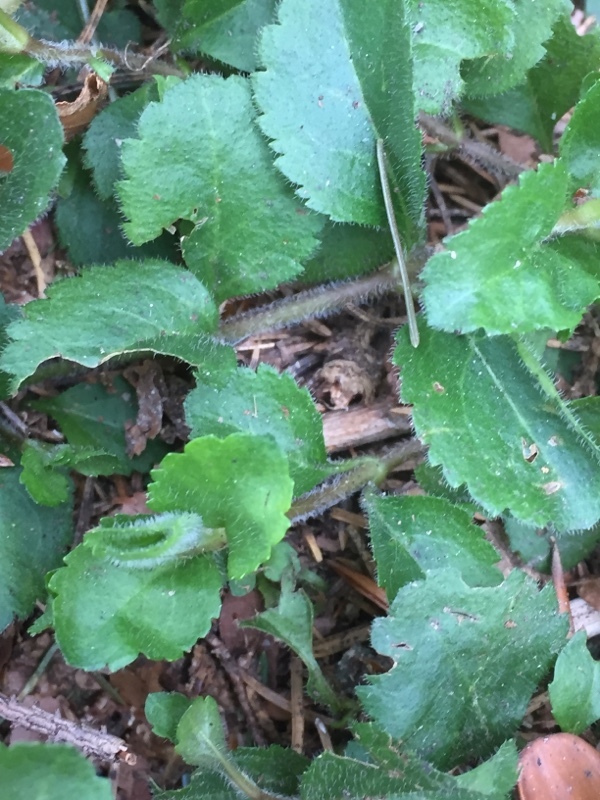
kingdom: Plantae
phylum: Tracheophyta
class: Magnoliopsida
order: Lamiales
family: Plantaginaceae
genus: Veronica
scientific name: Veronica officinalis
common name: Common speedwell
